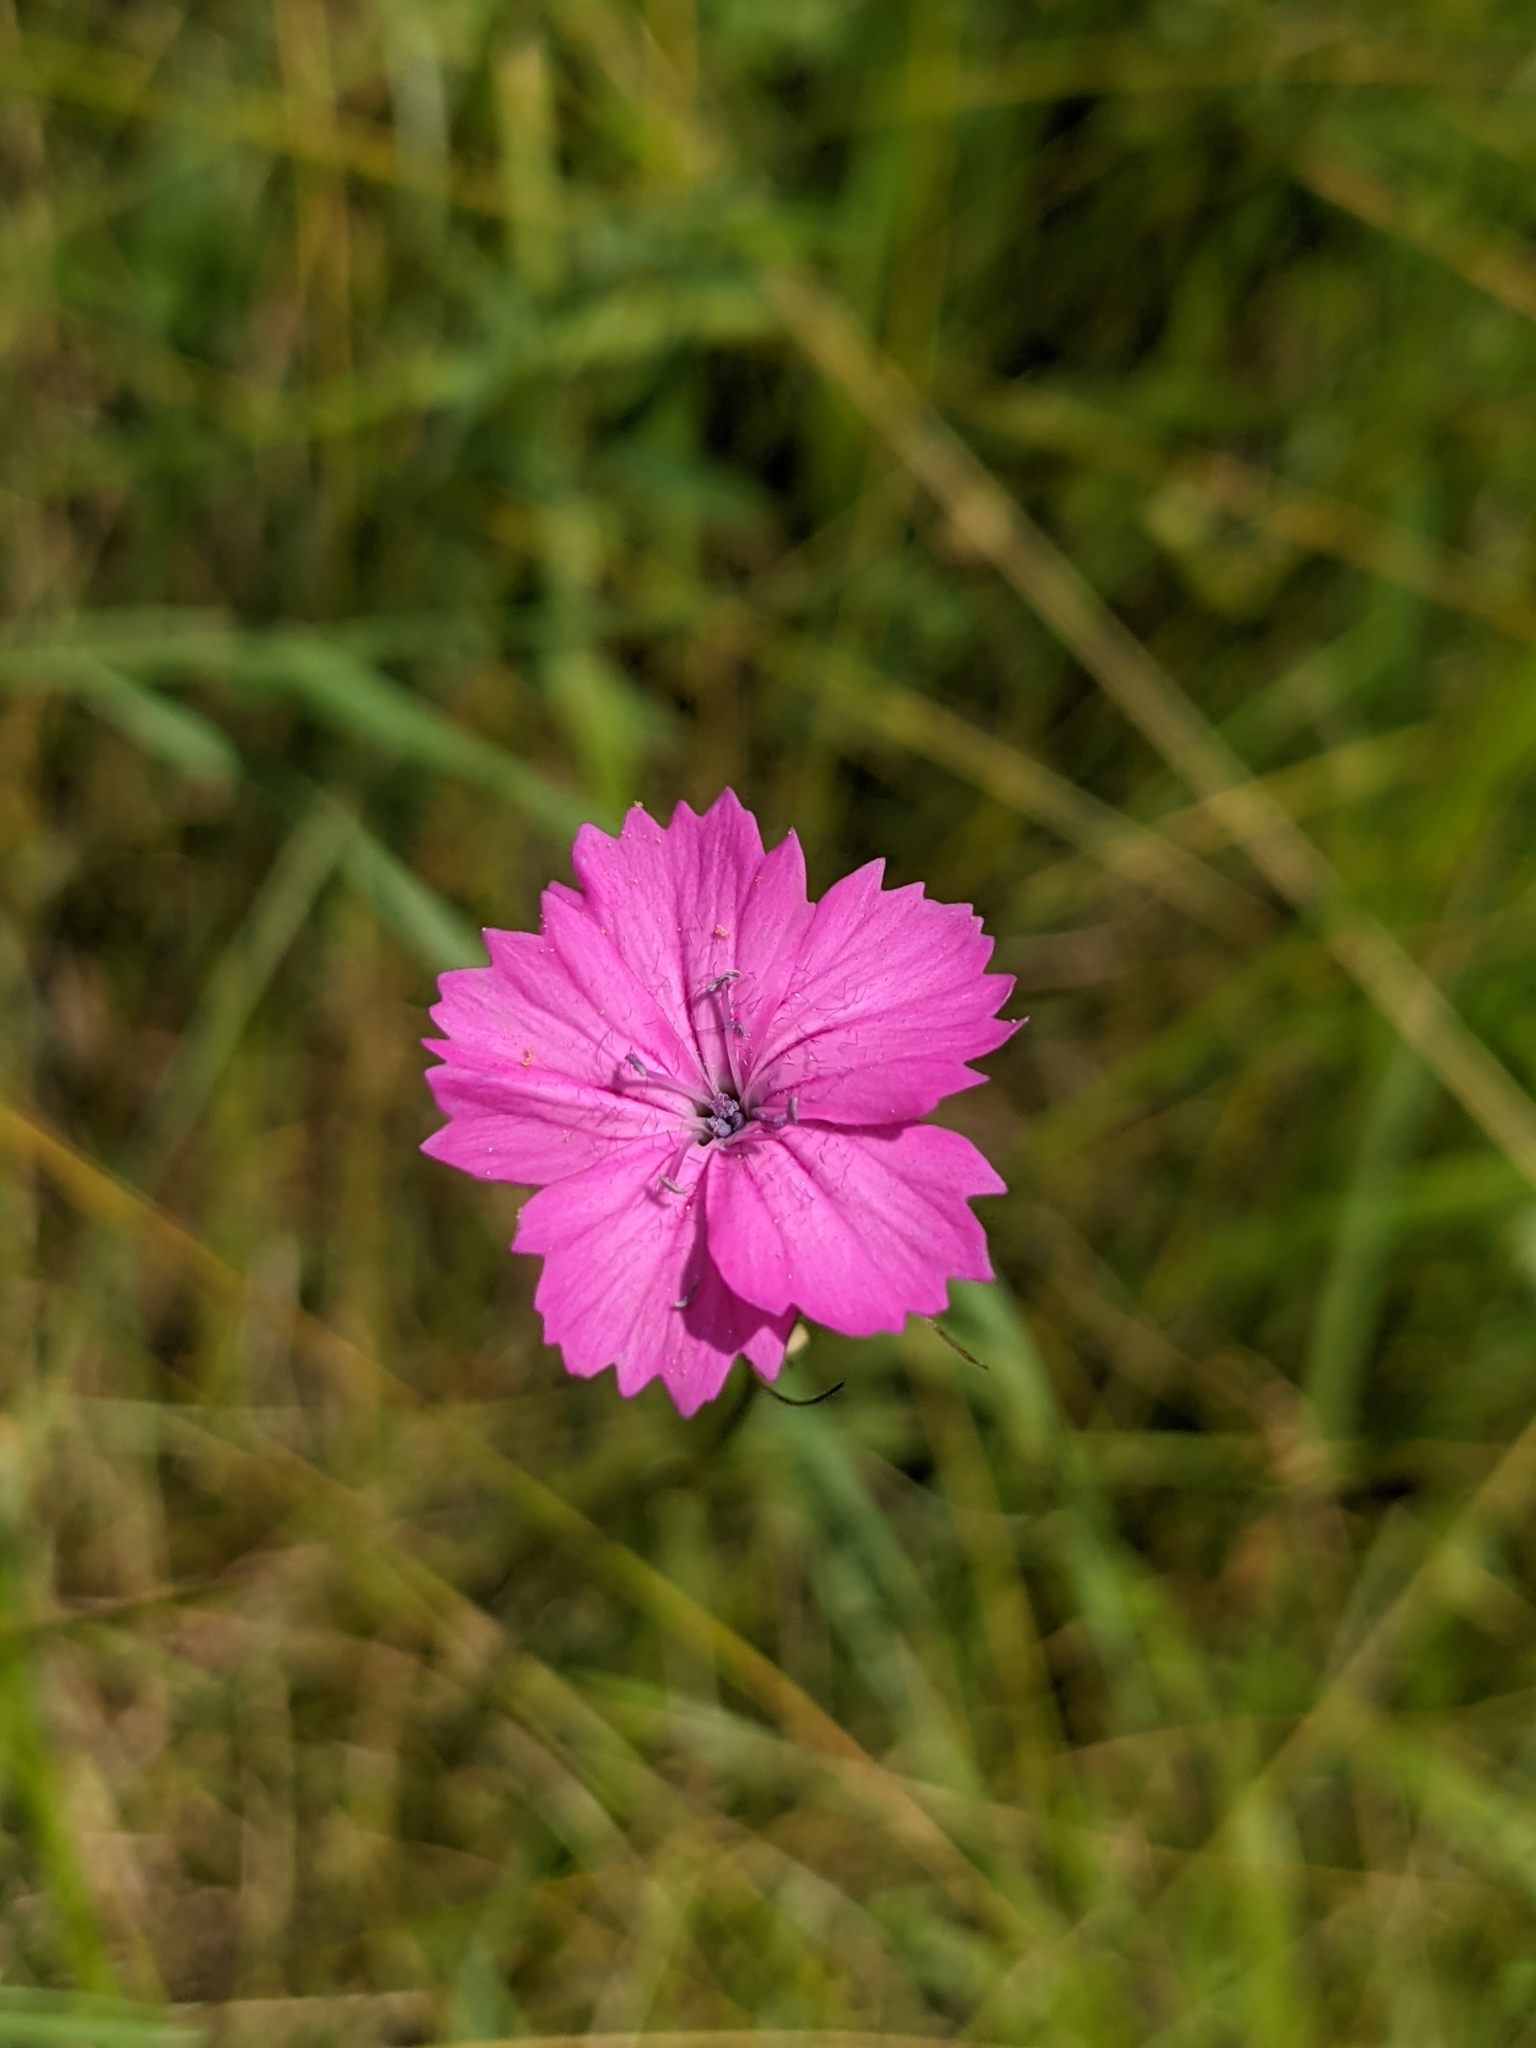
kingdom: Plantae
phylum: Tracheophyta
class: Magnoliopsida
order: Caryophyllales
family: Caryophyllaceae
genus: Dianthus
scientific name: Dianthus carthusianorum
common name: Carthusian pink
